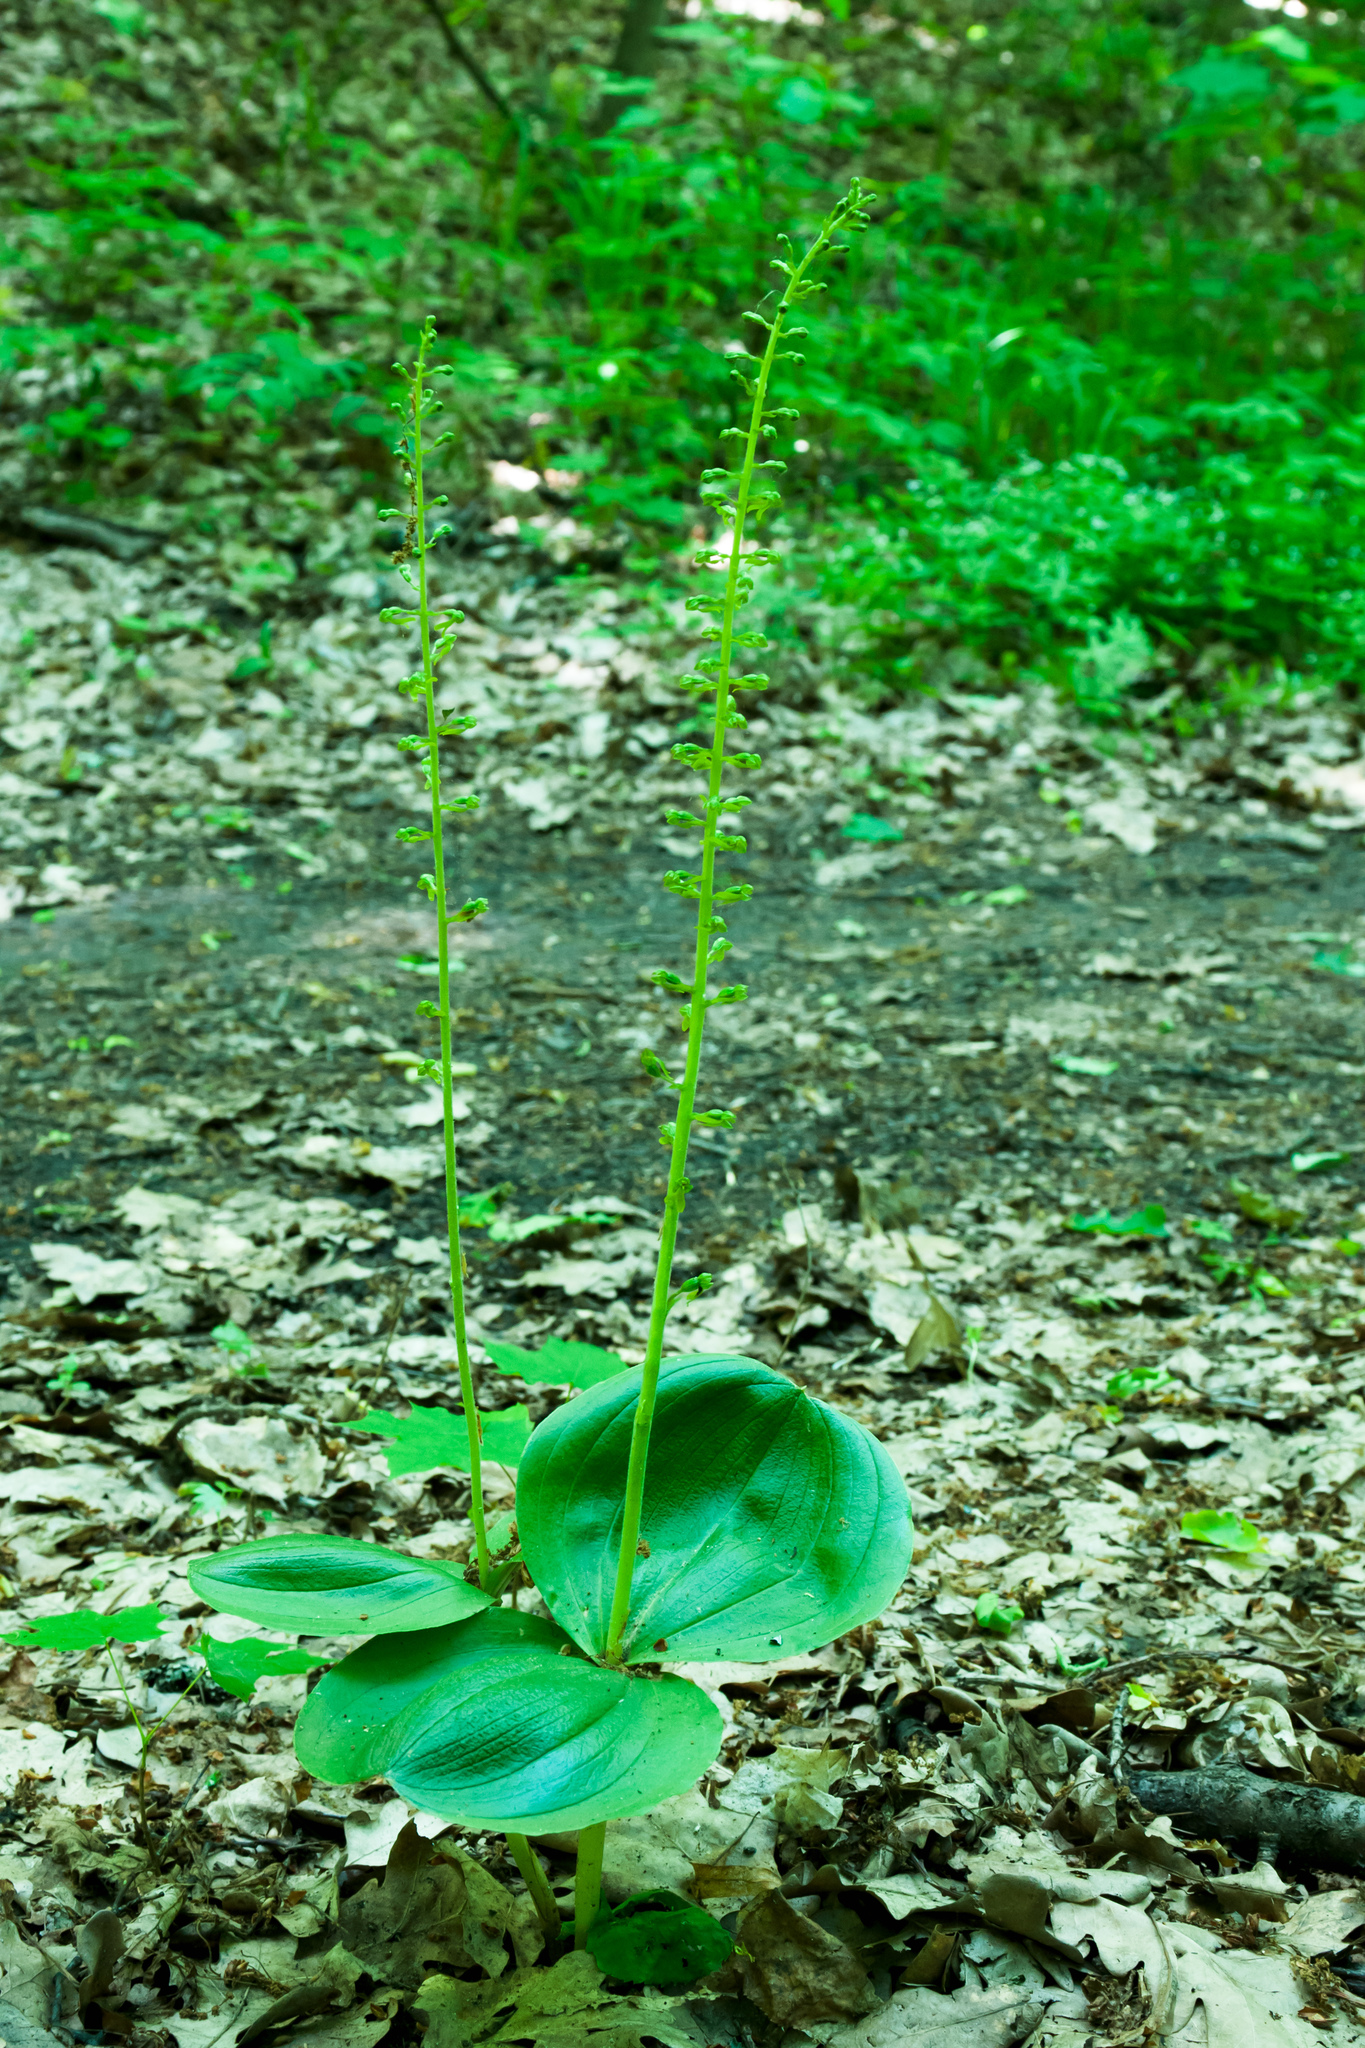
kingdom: Plantae
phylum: Tracheophyta
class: Liliopsida
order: Asparagales
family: Orchidaceae
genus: Neottia
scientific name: Neottia ovata
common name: Common twayblade
